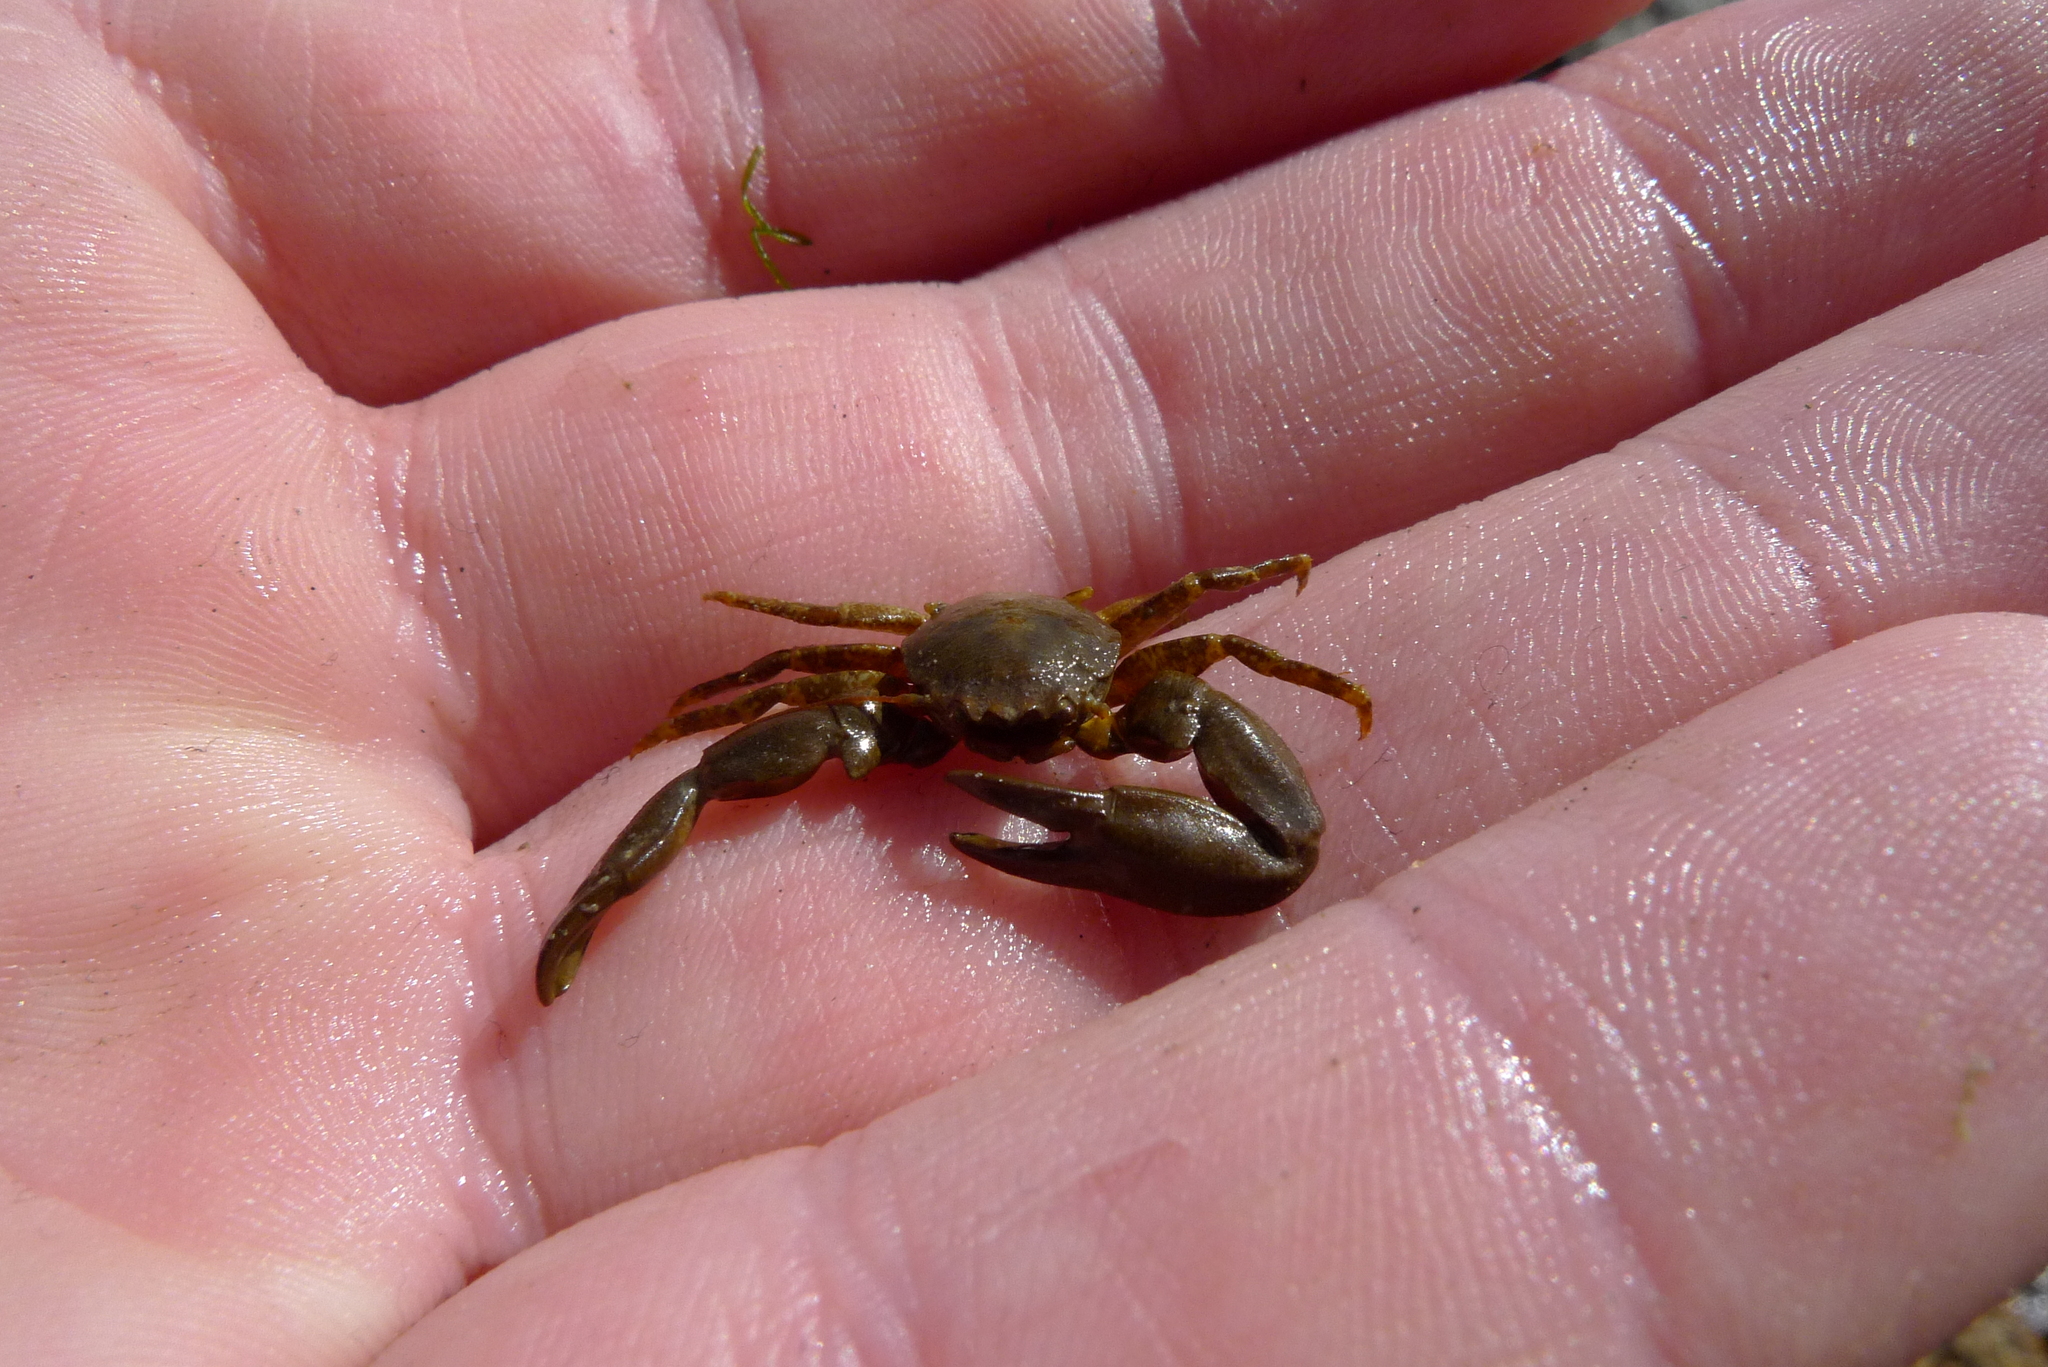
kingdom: Animalia
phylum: Arthropoda
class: Malacostraca
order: Decapoda
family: Porcellanidae
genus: Pisidia
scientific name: Pisidia longicornis
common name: Long clawed porcelain crab
